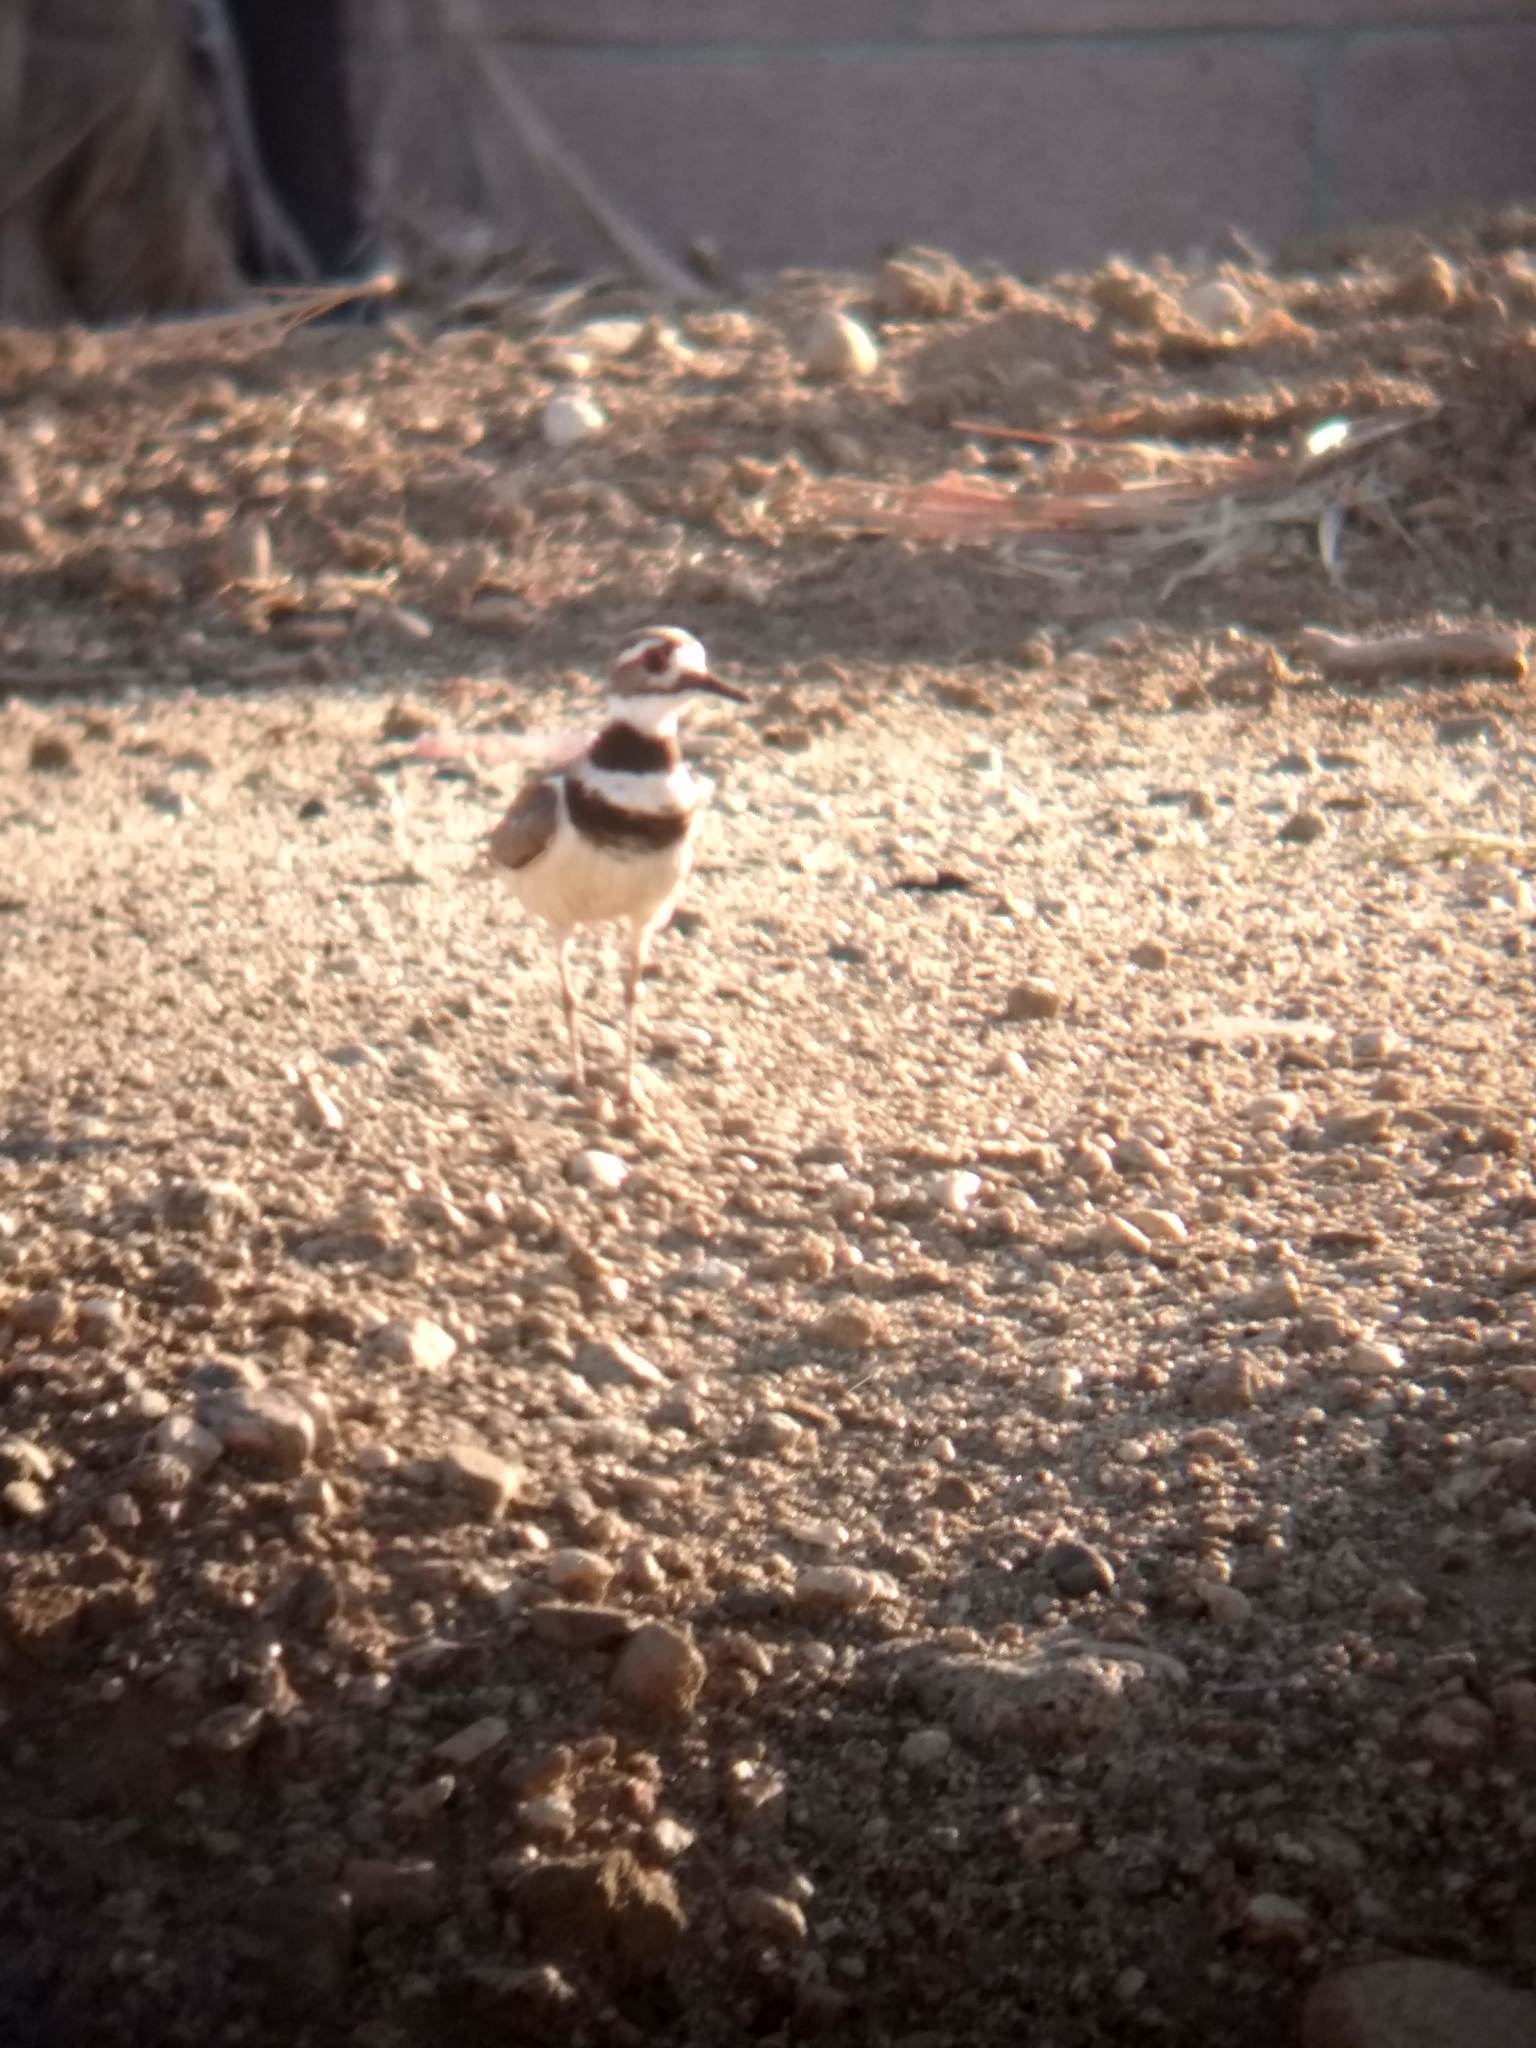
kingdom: Animalia
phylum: Chordata
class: Aves
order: Charadriiformes
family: Charadriidae
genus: Charadrius
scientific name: Charadrius vociferus
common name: Killdeer
